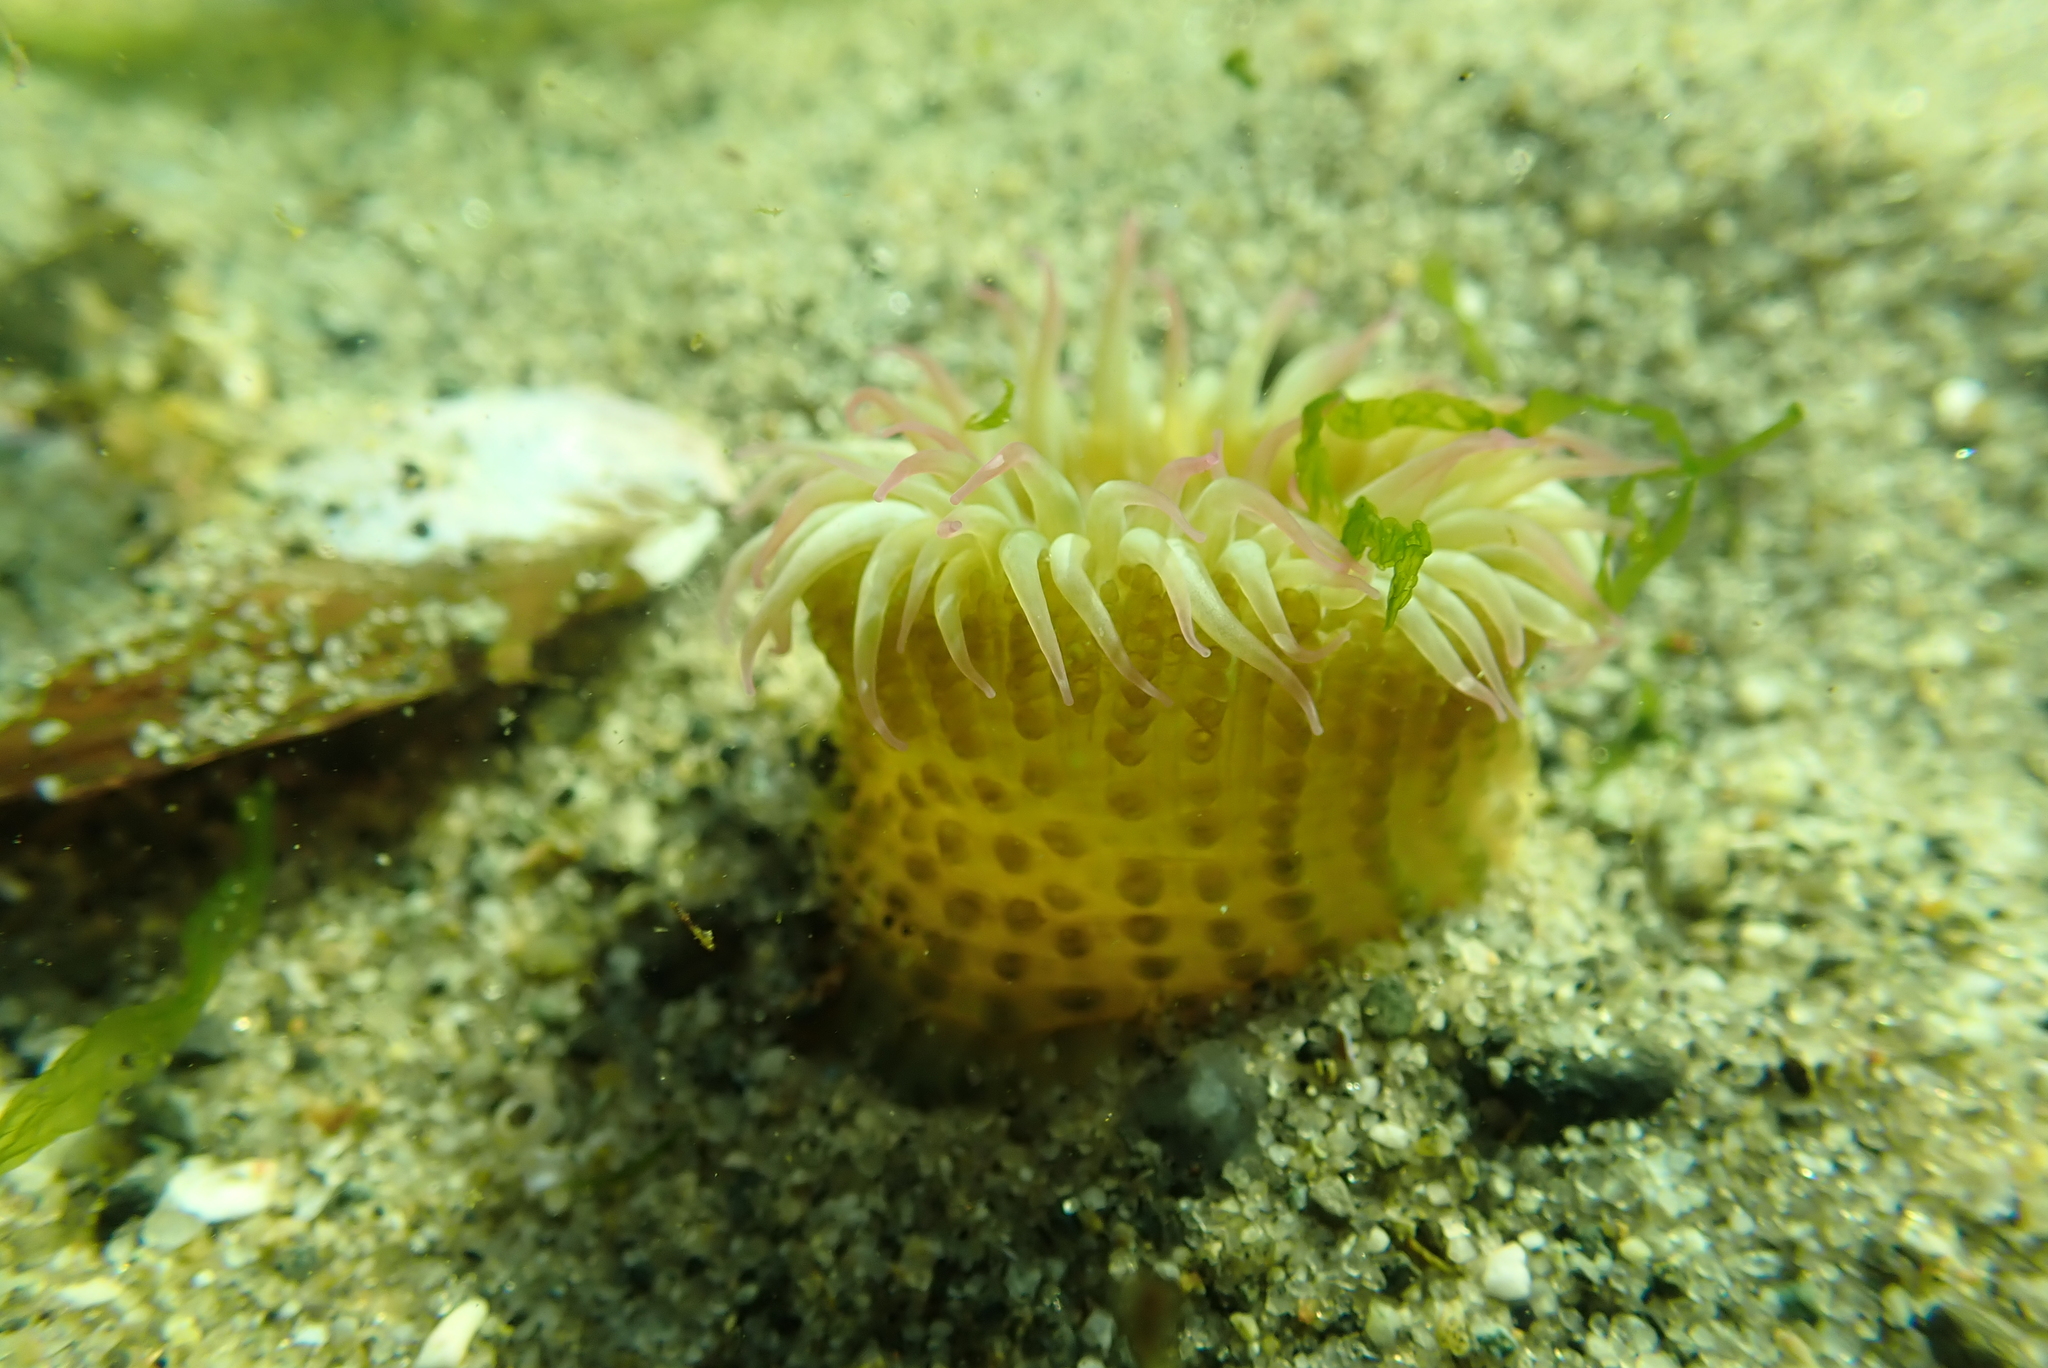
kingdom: Animalia
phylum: Cnidaria
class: Anthozoa
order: Actiniaria
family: Actiniidae
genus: Anthopleura
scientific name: Anthopleura elegantissima
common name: Clonal anemone
